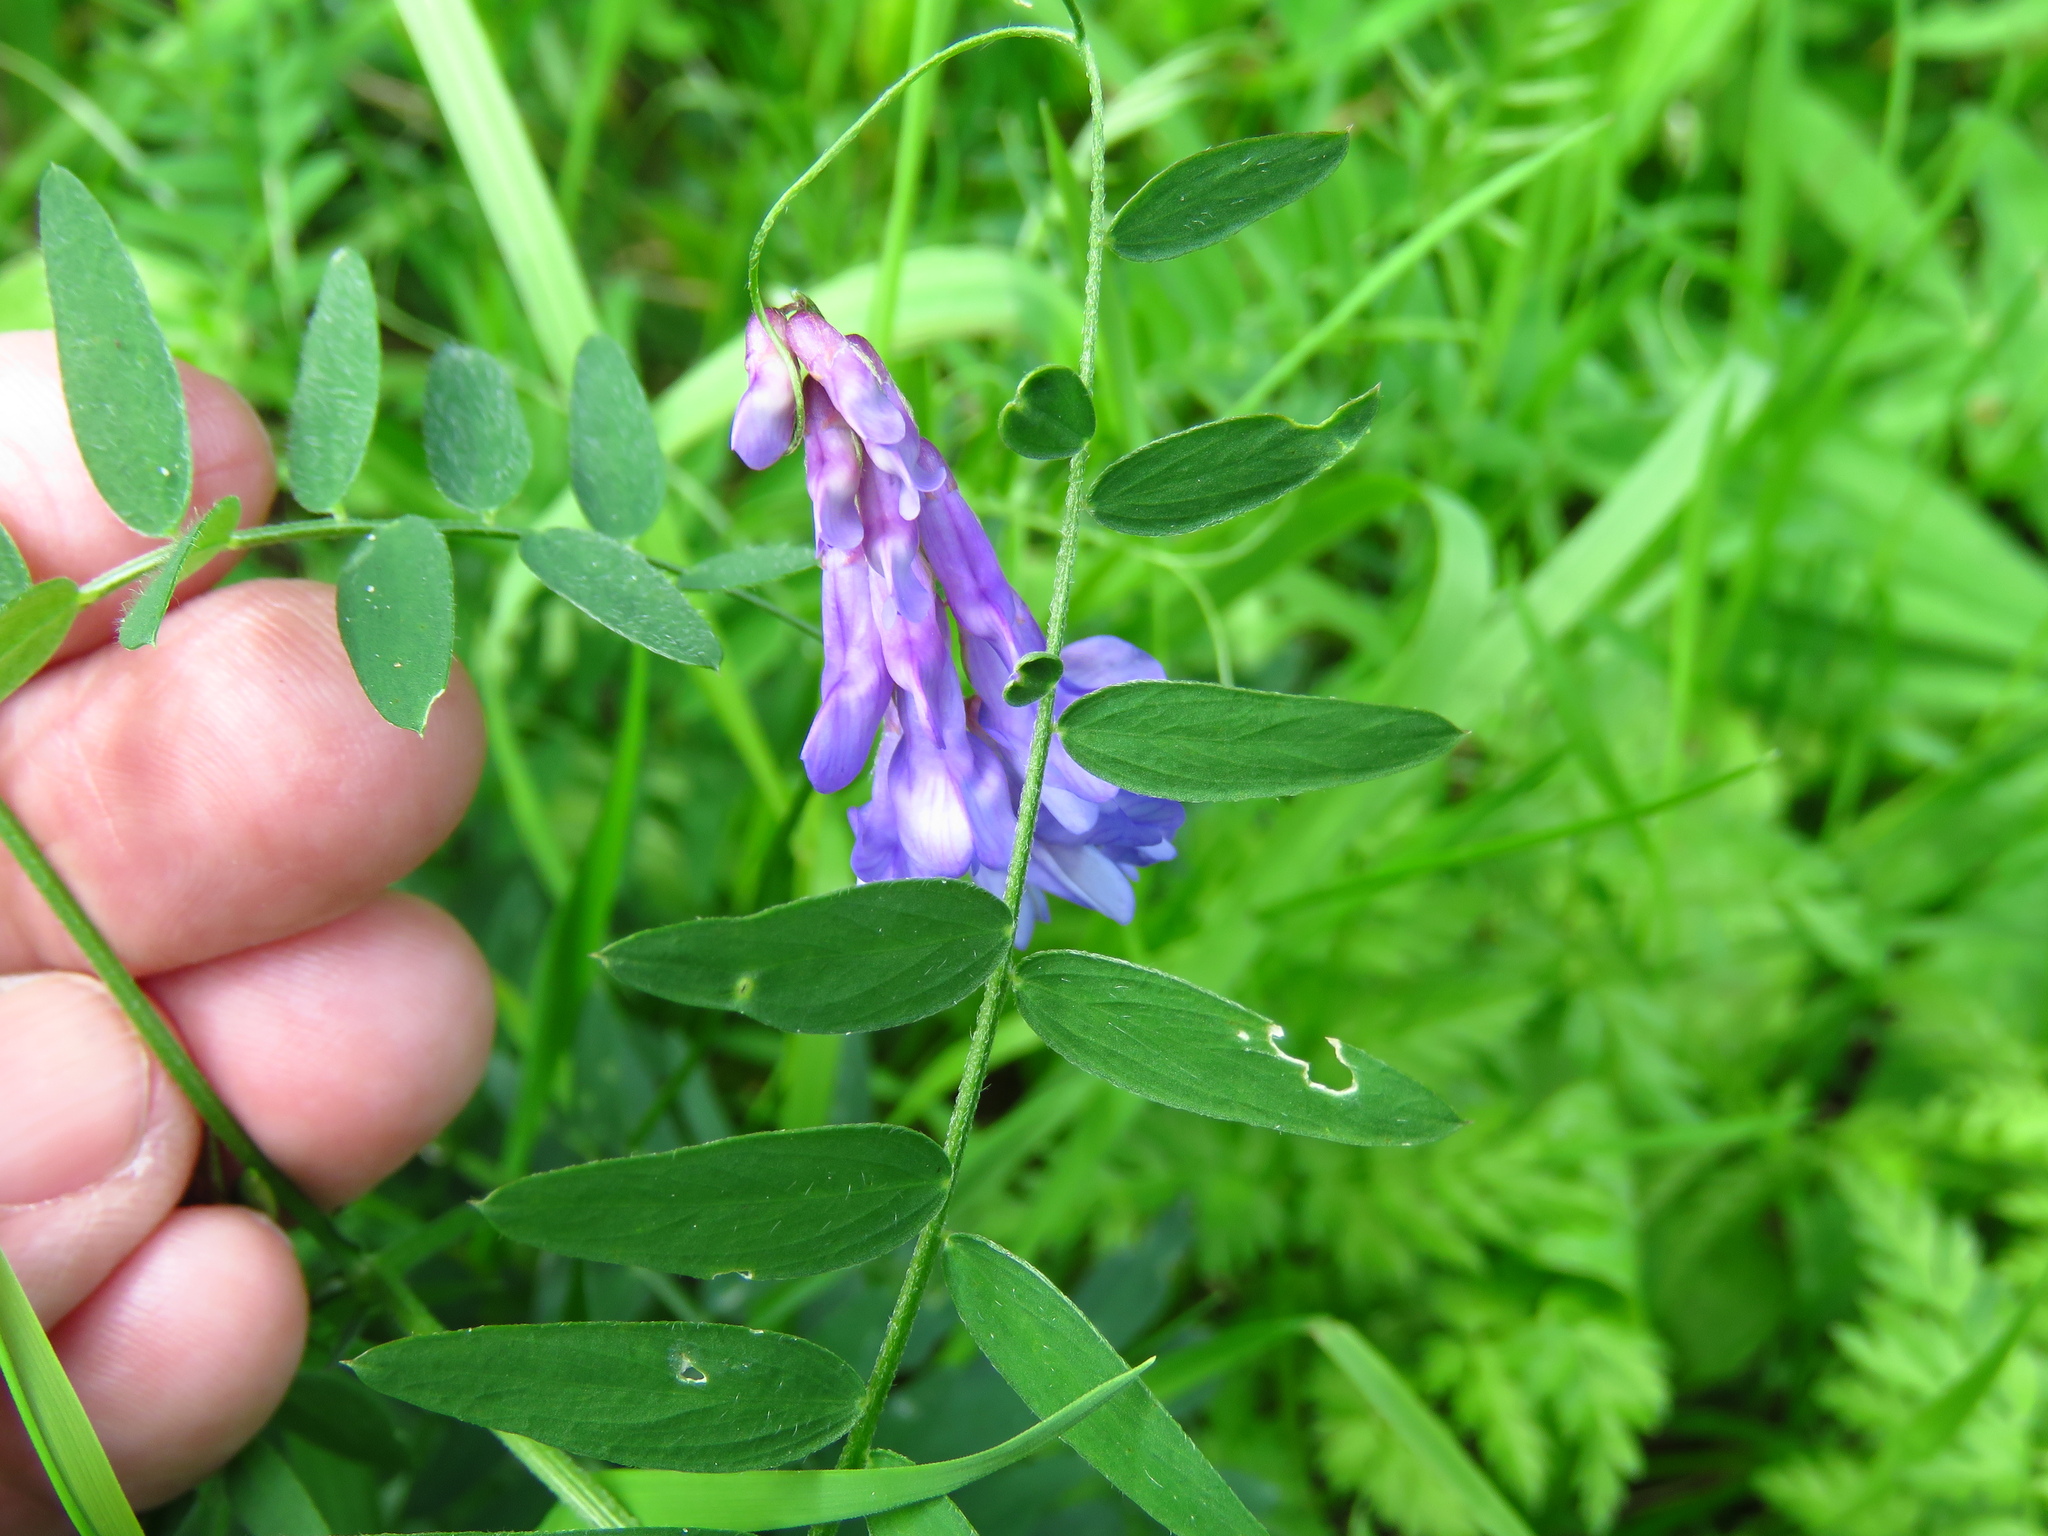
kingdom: Plantae
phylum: Tracheophyta
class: Magnoliopsida
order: Fabales
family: Fabaceae
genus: Vicia
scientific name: Vicia cracca
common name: Bird vetch
